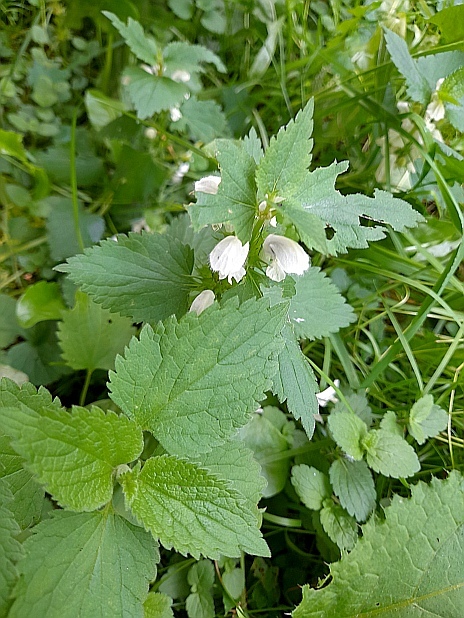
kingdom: Plantae
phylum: Tracheophyta
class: Magnoliopsida
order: Lamiales
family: Lamiaceae
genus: Lamium
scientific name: Lamium album
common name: White dead-nettle
